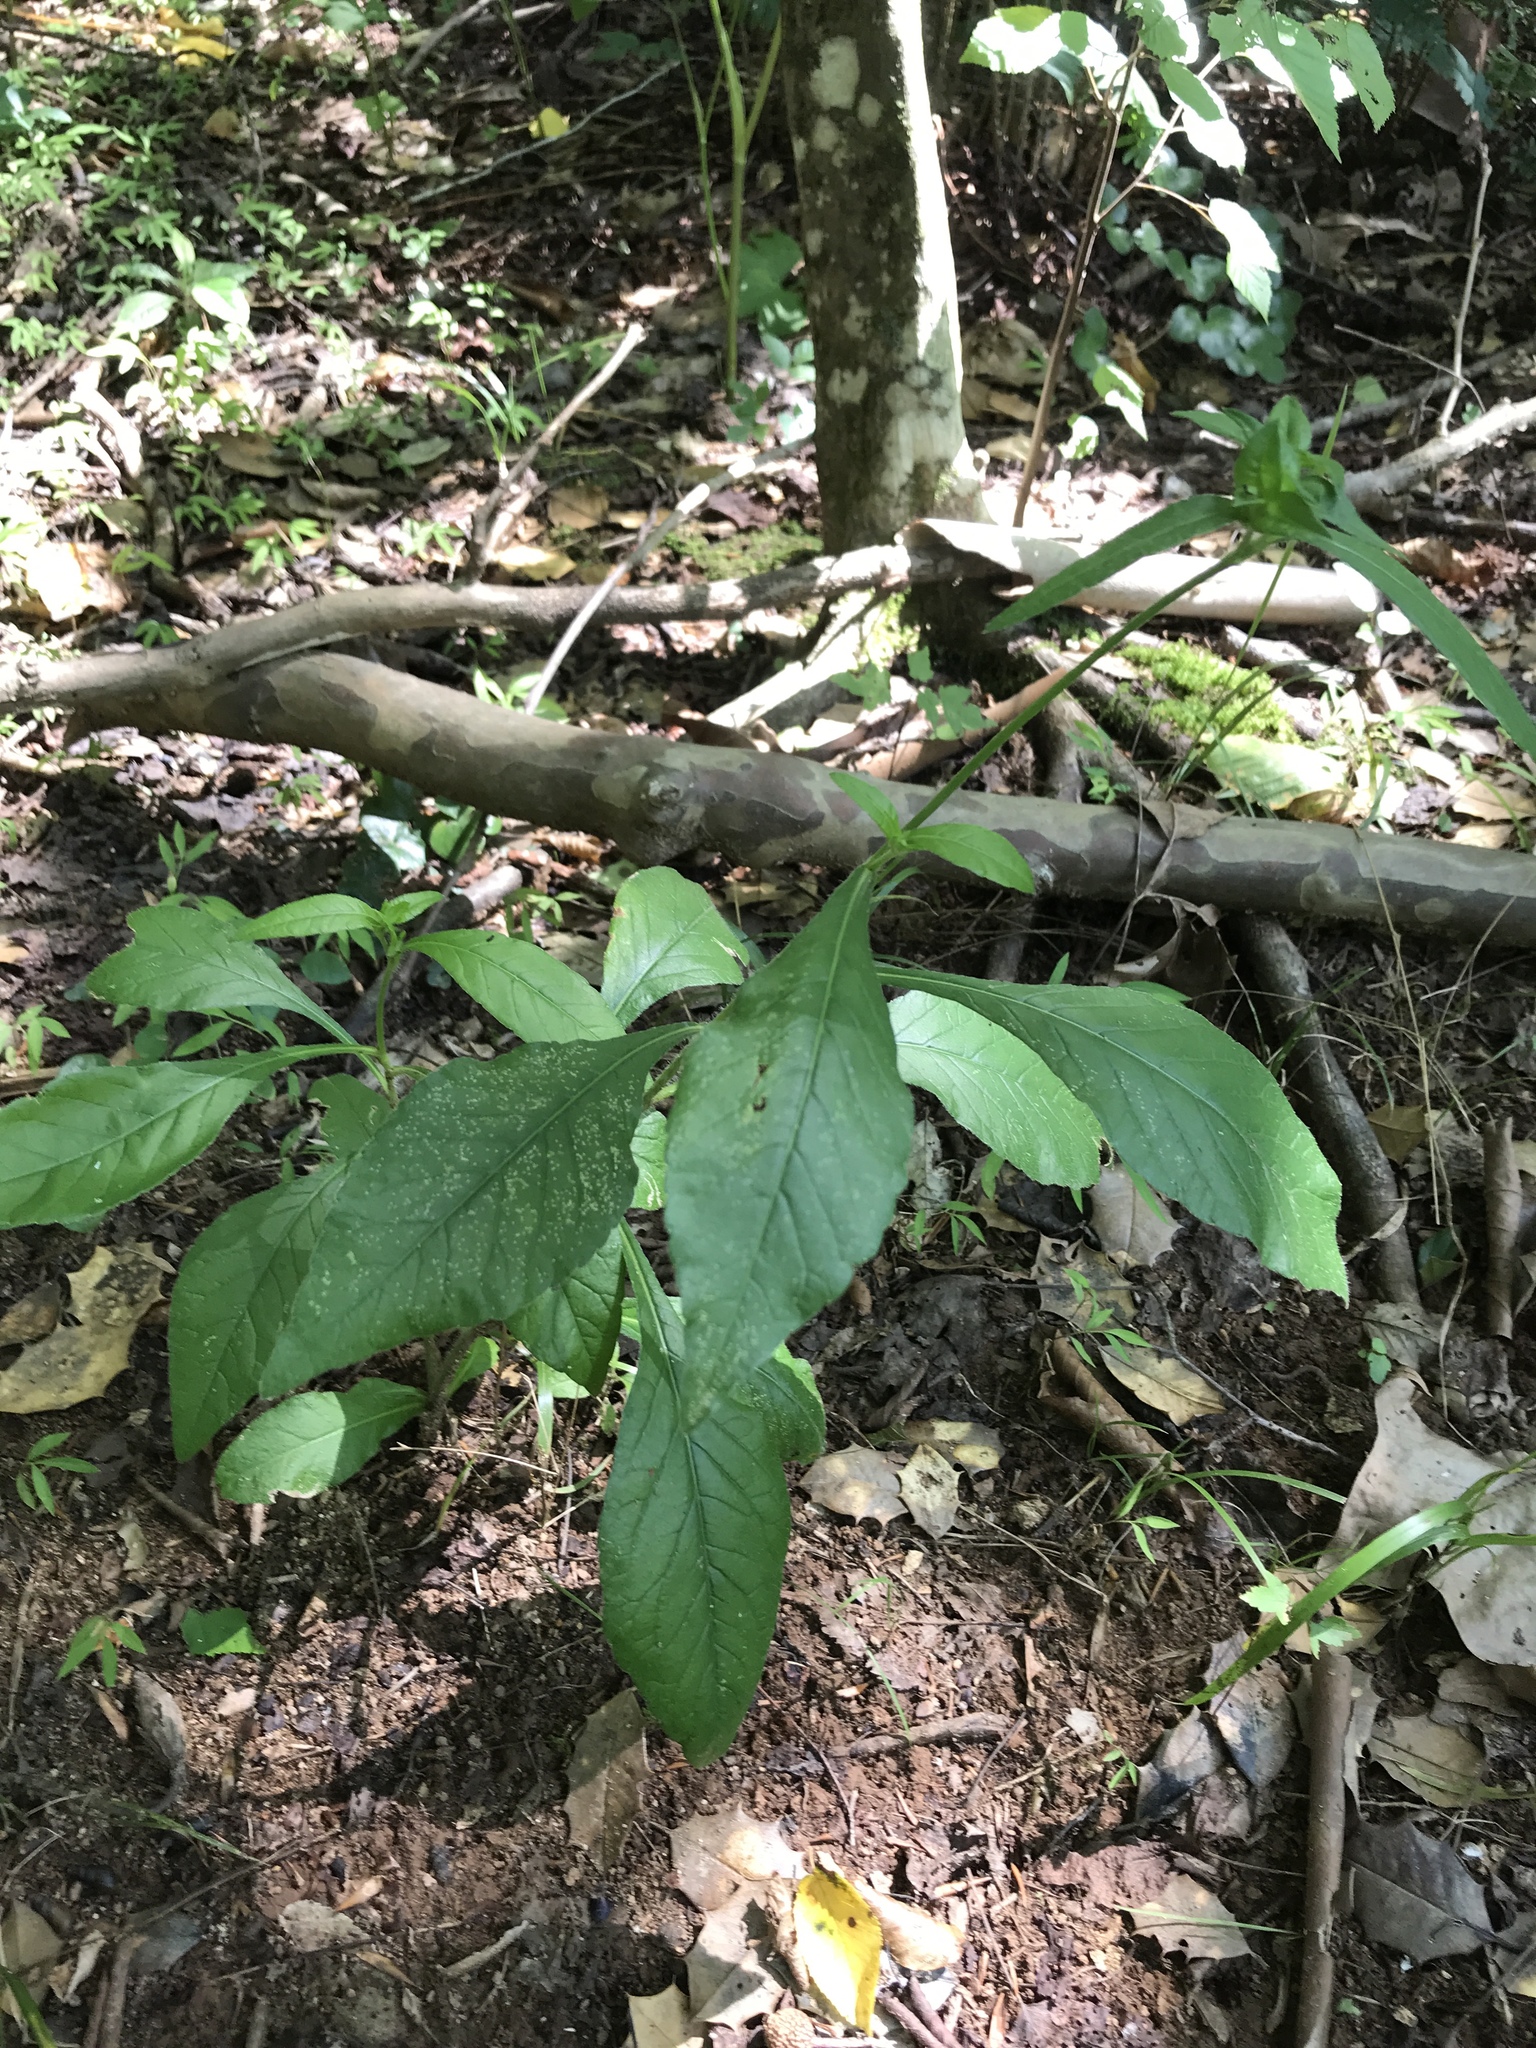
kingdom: Plantae
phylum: Tracheophyta
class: Magnoliopsida
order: Asterales
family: Asteraceae
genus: Elephantopus
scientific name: Elephantopus carolinianus
